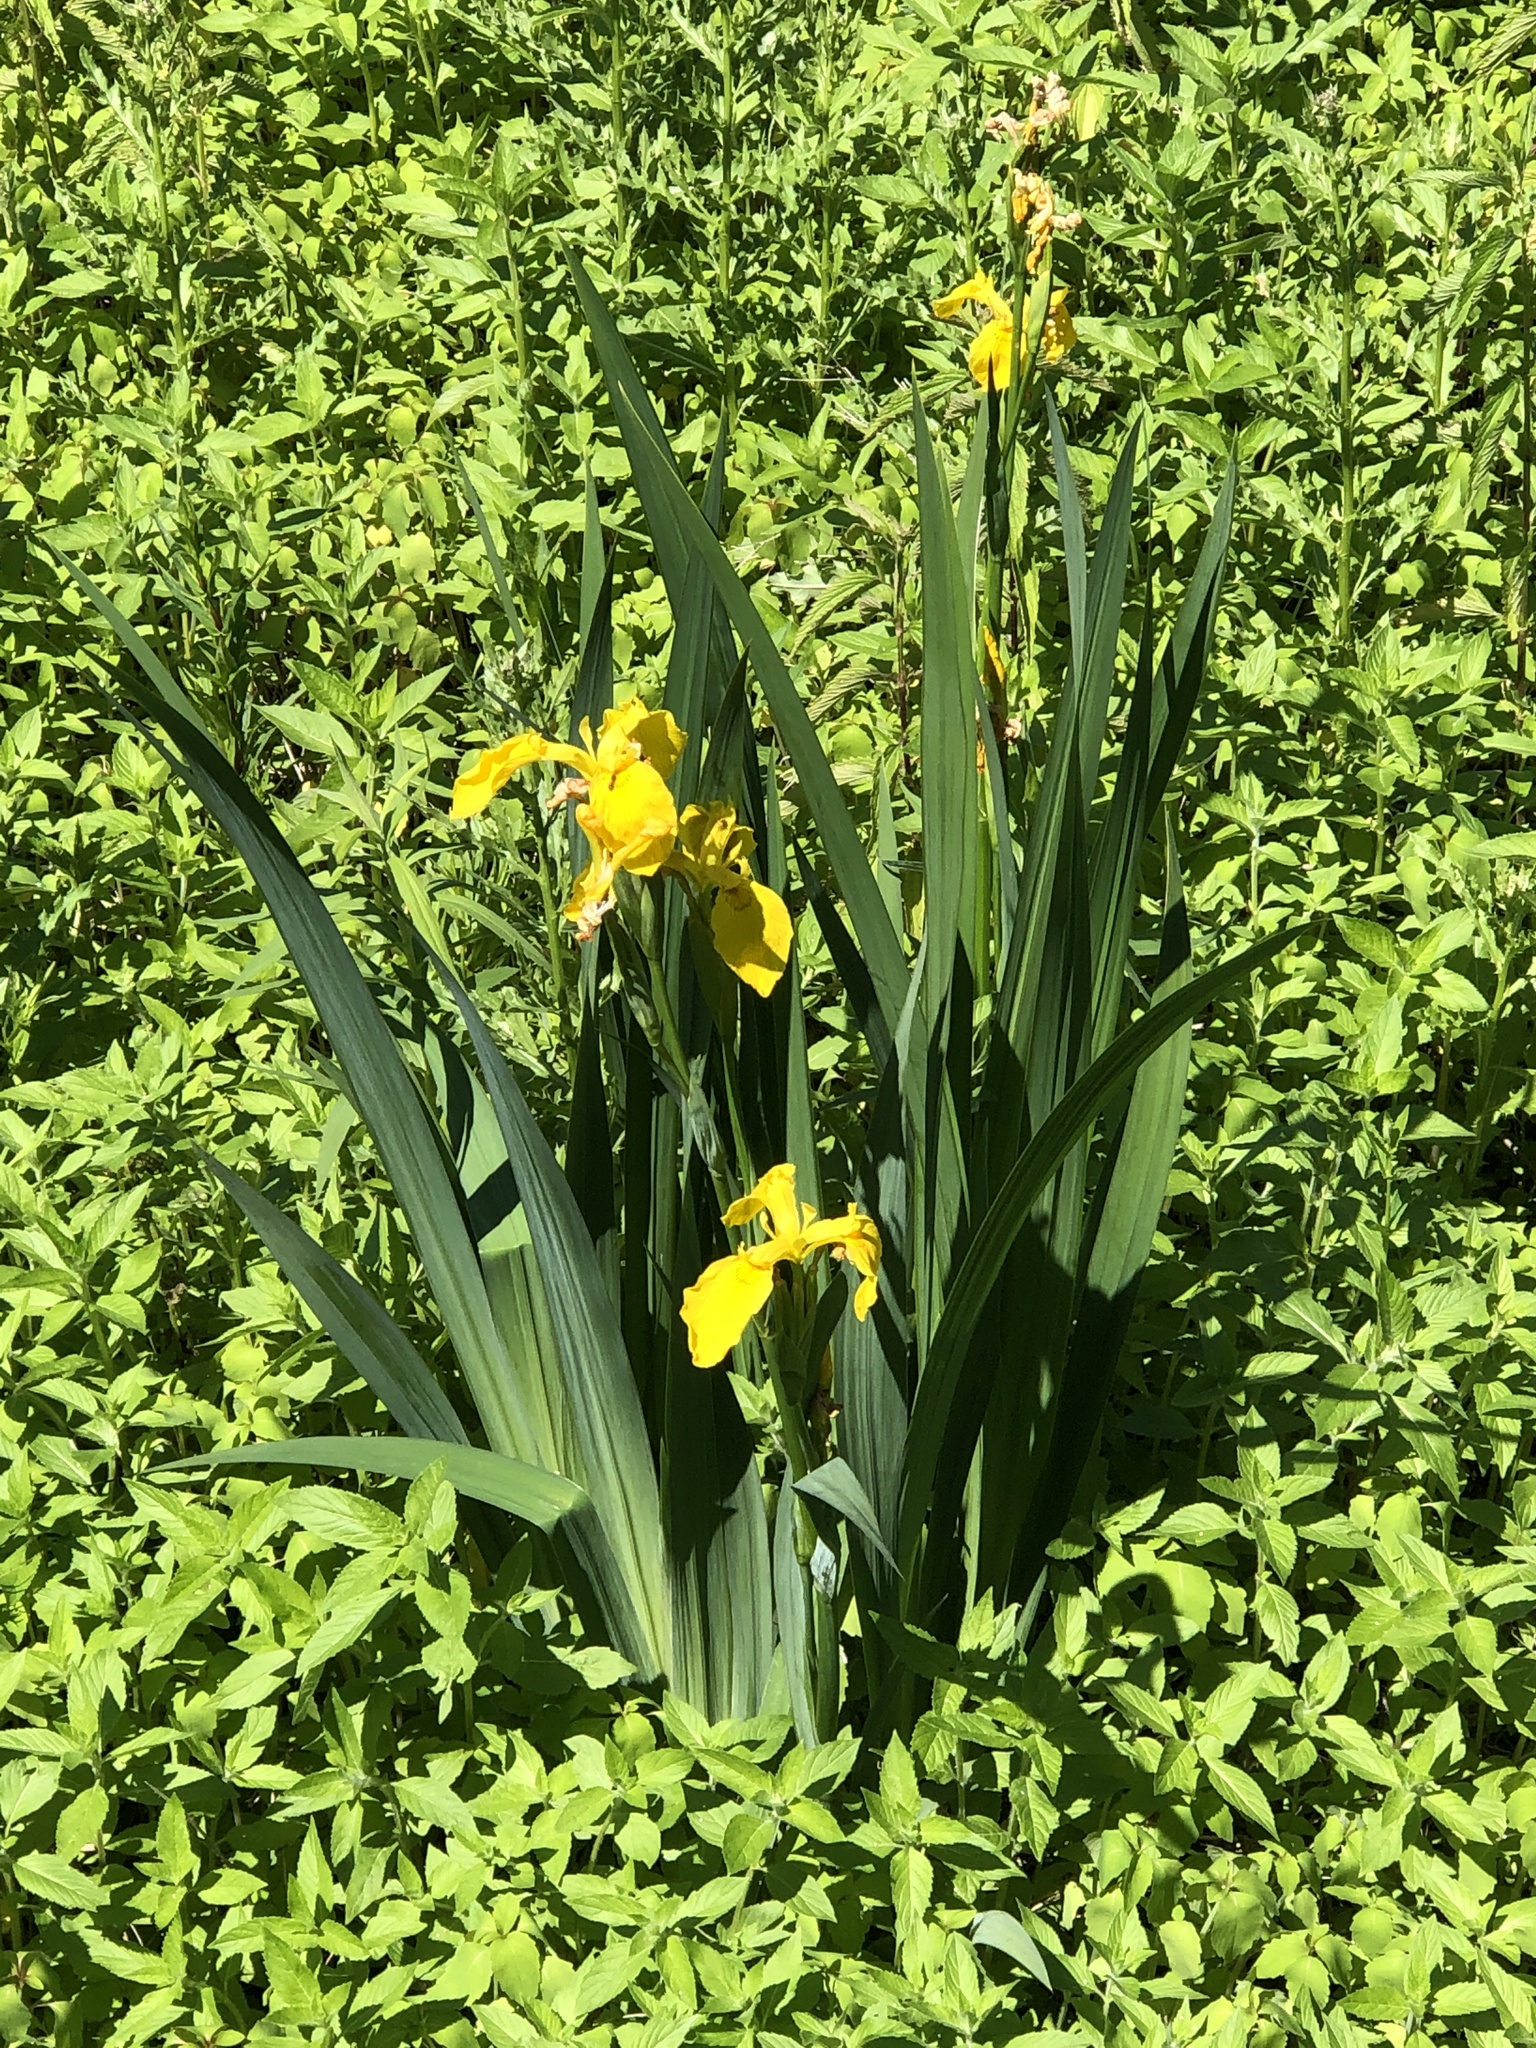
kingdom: Plantae
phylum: Tracheophyta
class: Liliopsida
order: Asparagales
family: Iridaceae
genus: Iris
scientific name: Iris pseudacorus
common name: Yellow flag
